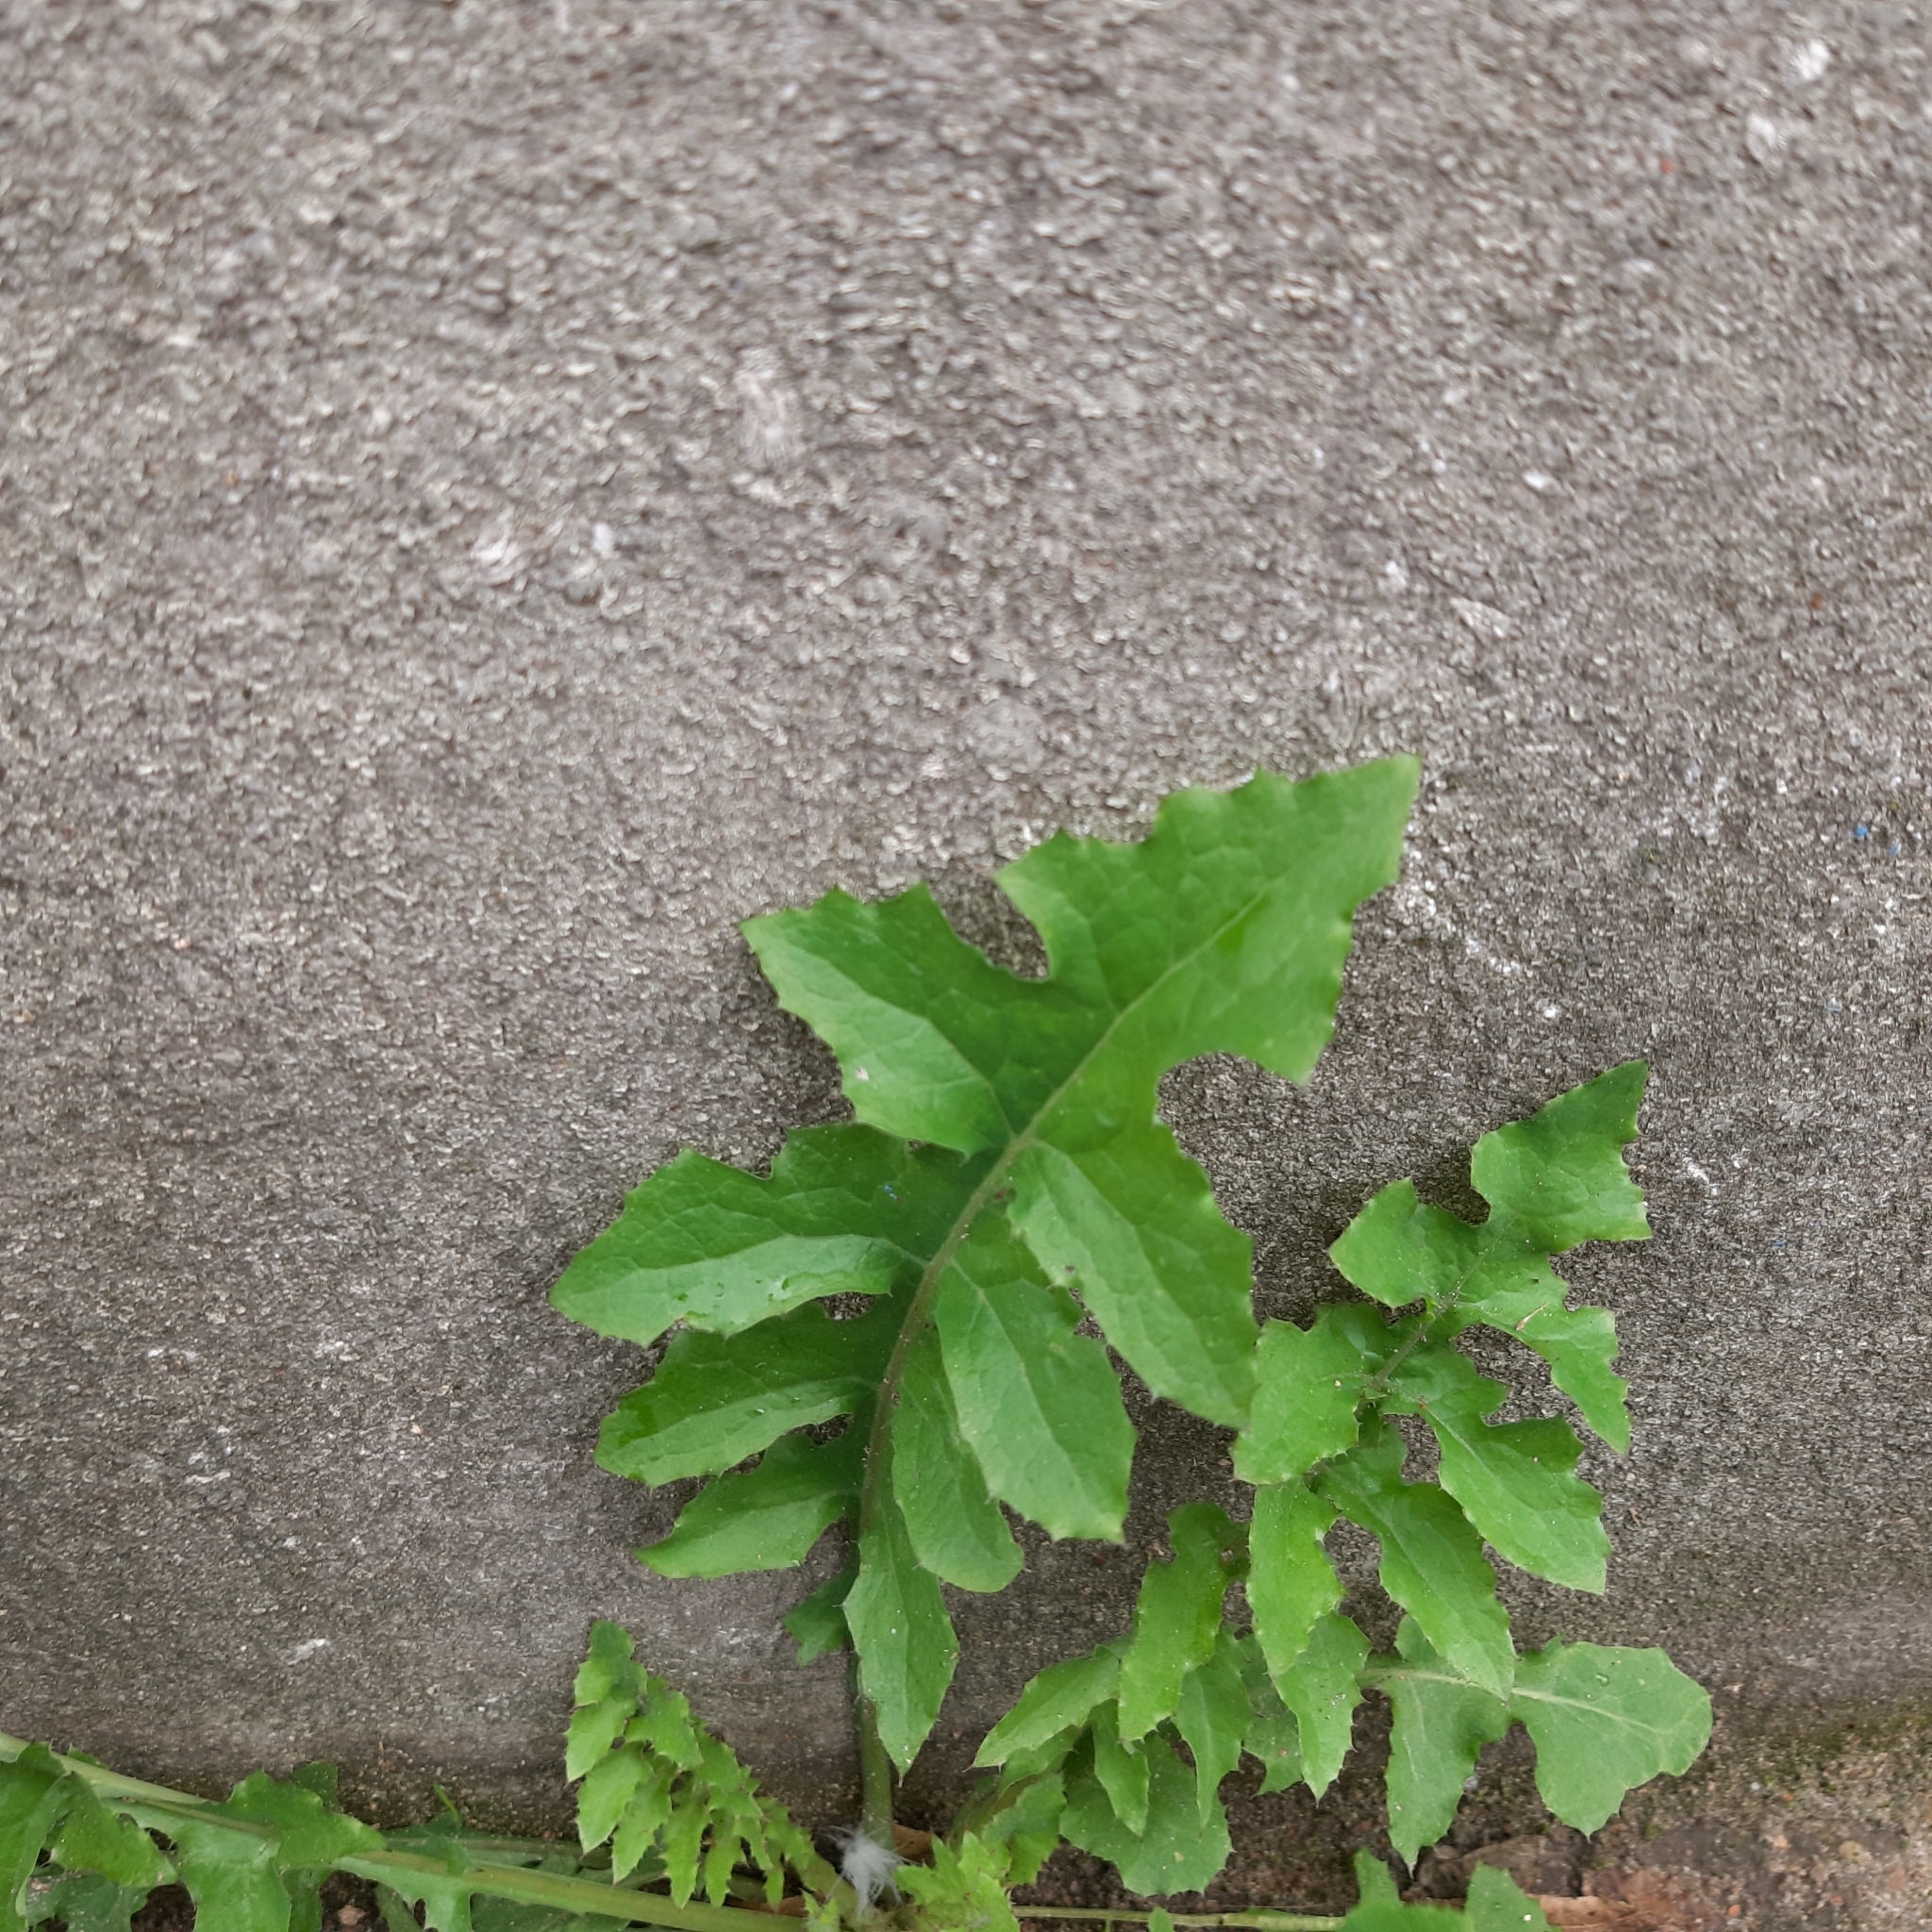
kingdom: Plantae
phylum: Tracheophyta
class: Magnoliopsida
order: Asterales
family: Asteraceae
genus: Sonchus
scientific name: Sonchus oleraceus
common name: Common sowthistle
